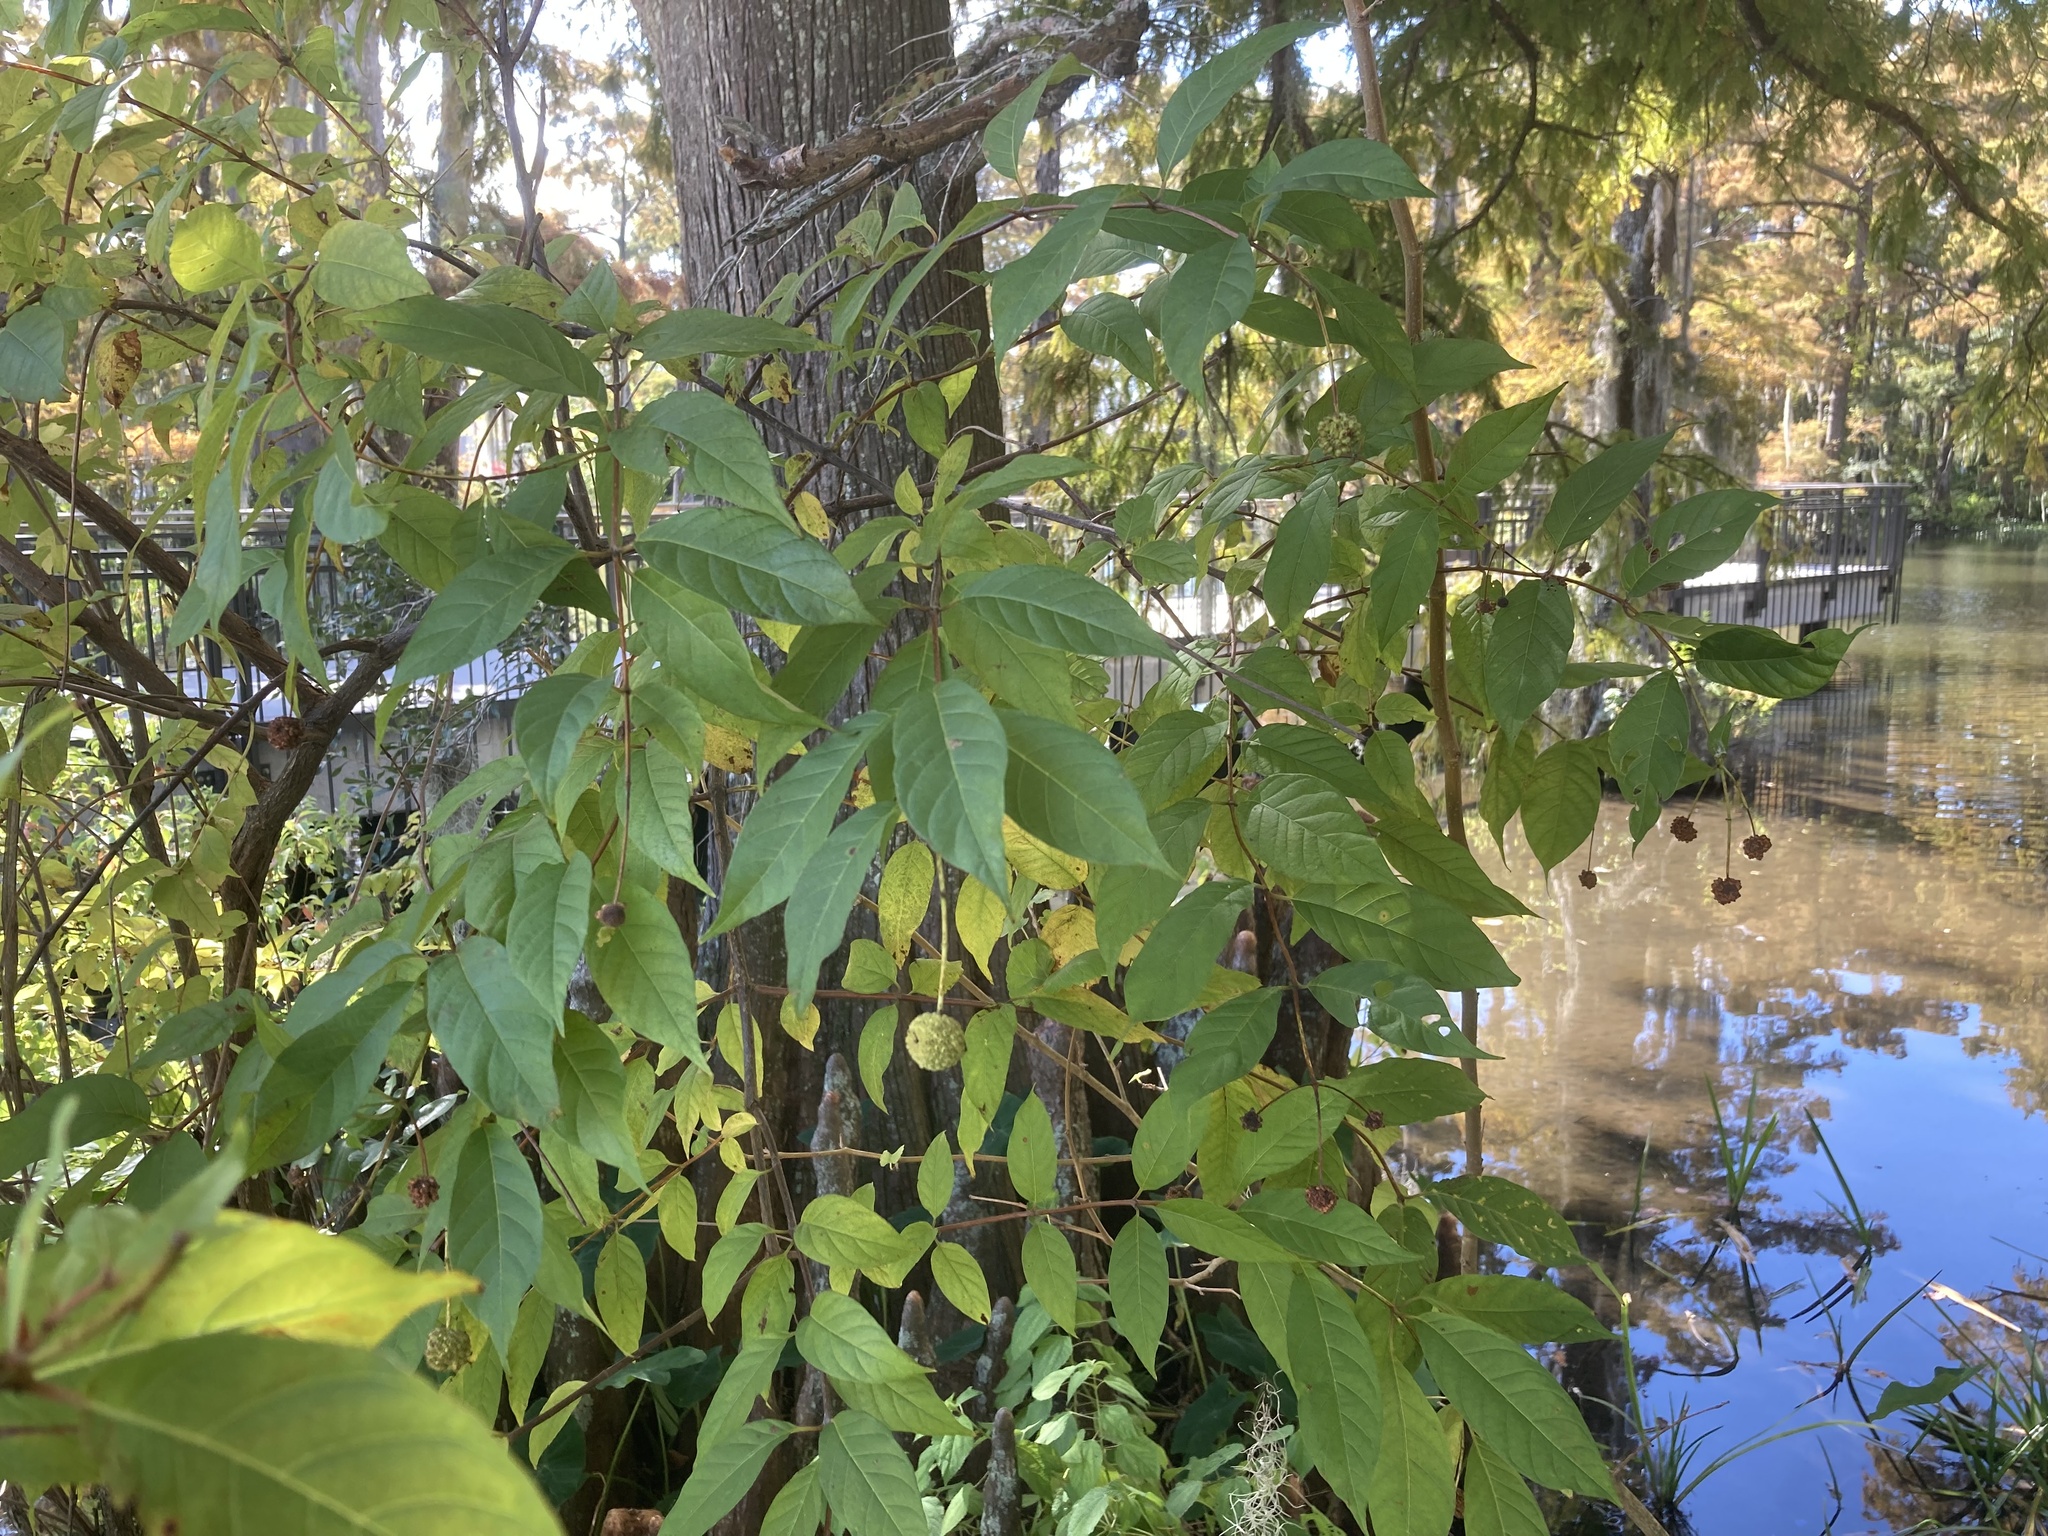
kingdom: Plantae
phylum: Tracheophyta
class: Magnoliopsida
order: Gentianales
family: Rubiaceae
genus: Cephalanthus
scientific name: Cephalanthus occidentalis
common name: Button-willow
